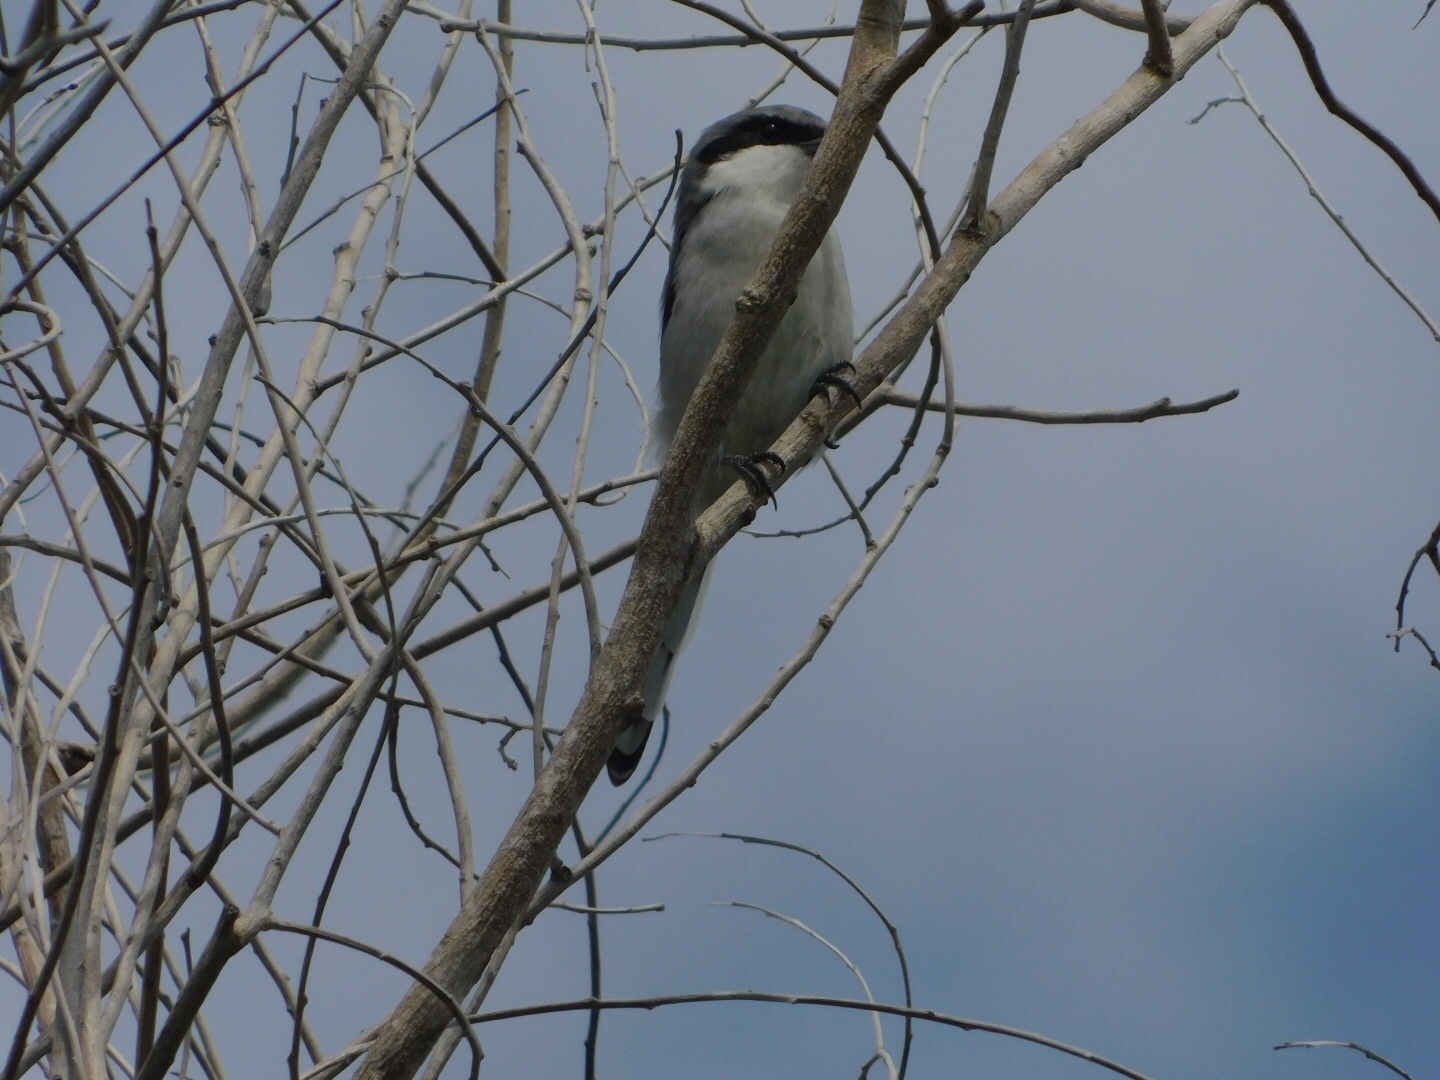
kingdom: Animalia
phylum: Chordata
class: Aves
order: Passeriformes
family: Laniidae
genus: Lanius
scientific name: Lanius ludovicianus
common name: Loggerhead shrike
